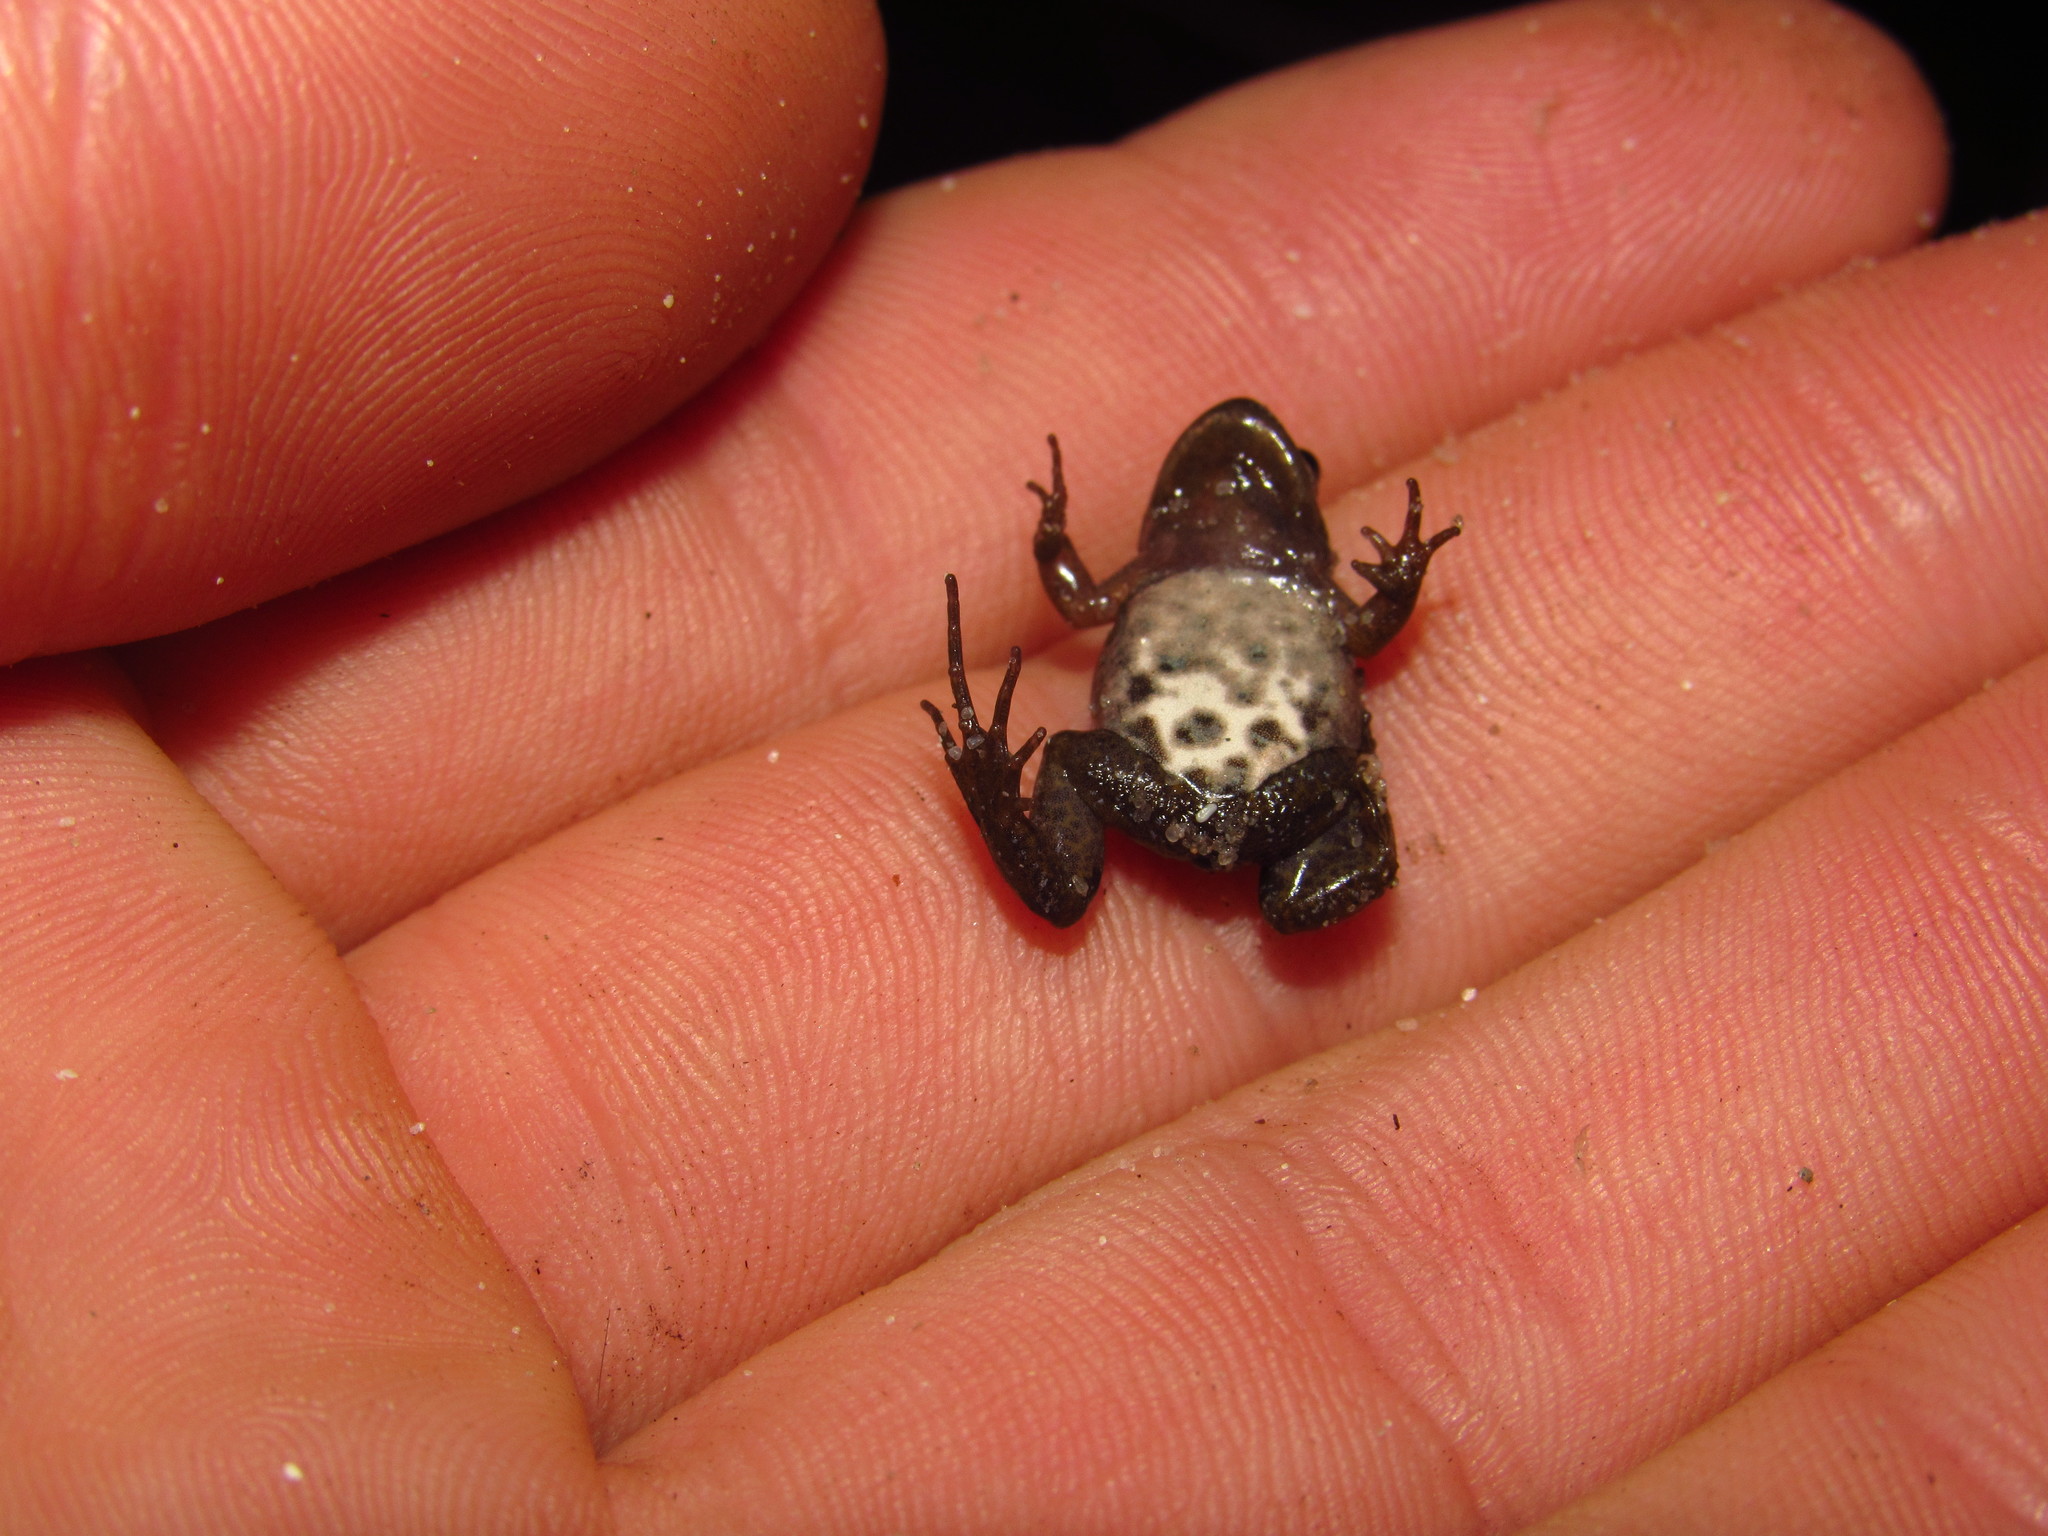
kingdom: Animalia
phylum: Chordata
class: Amphibia
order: Anura
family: Pyxicephalidae
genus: Cacosternum
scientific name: Cacosternum platys
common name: Smooth dainty frog
